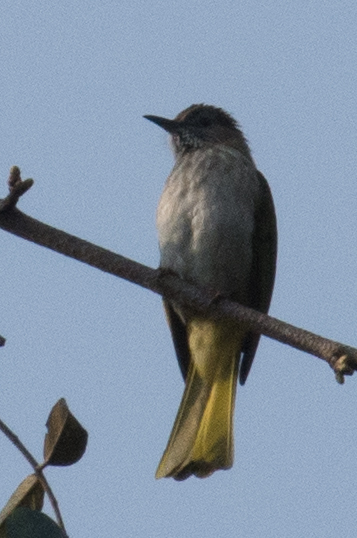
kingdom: Animalia
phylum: Chordata
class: Aves
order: Passeriformes
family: Pycnonotidae
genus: Ixos
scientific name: Ixos mcclellandii
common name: Mountain bulbul
